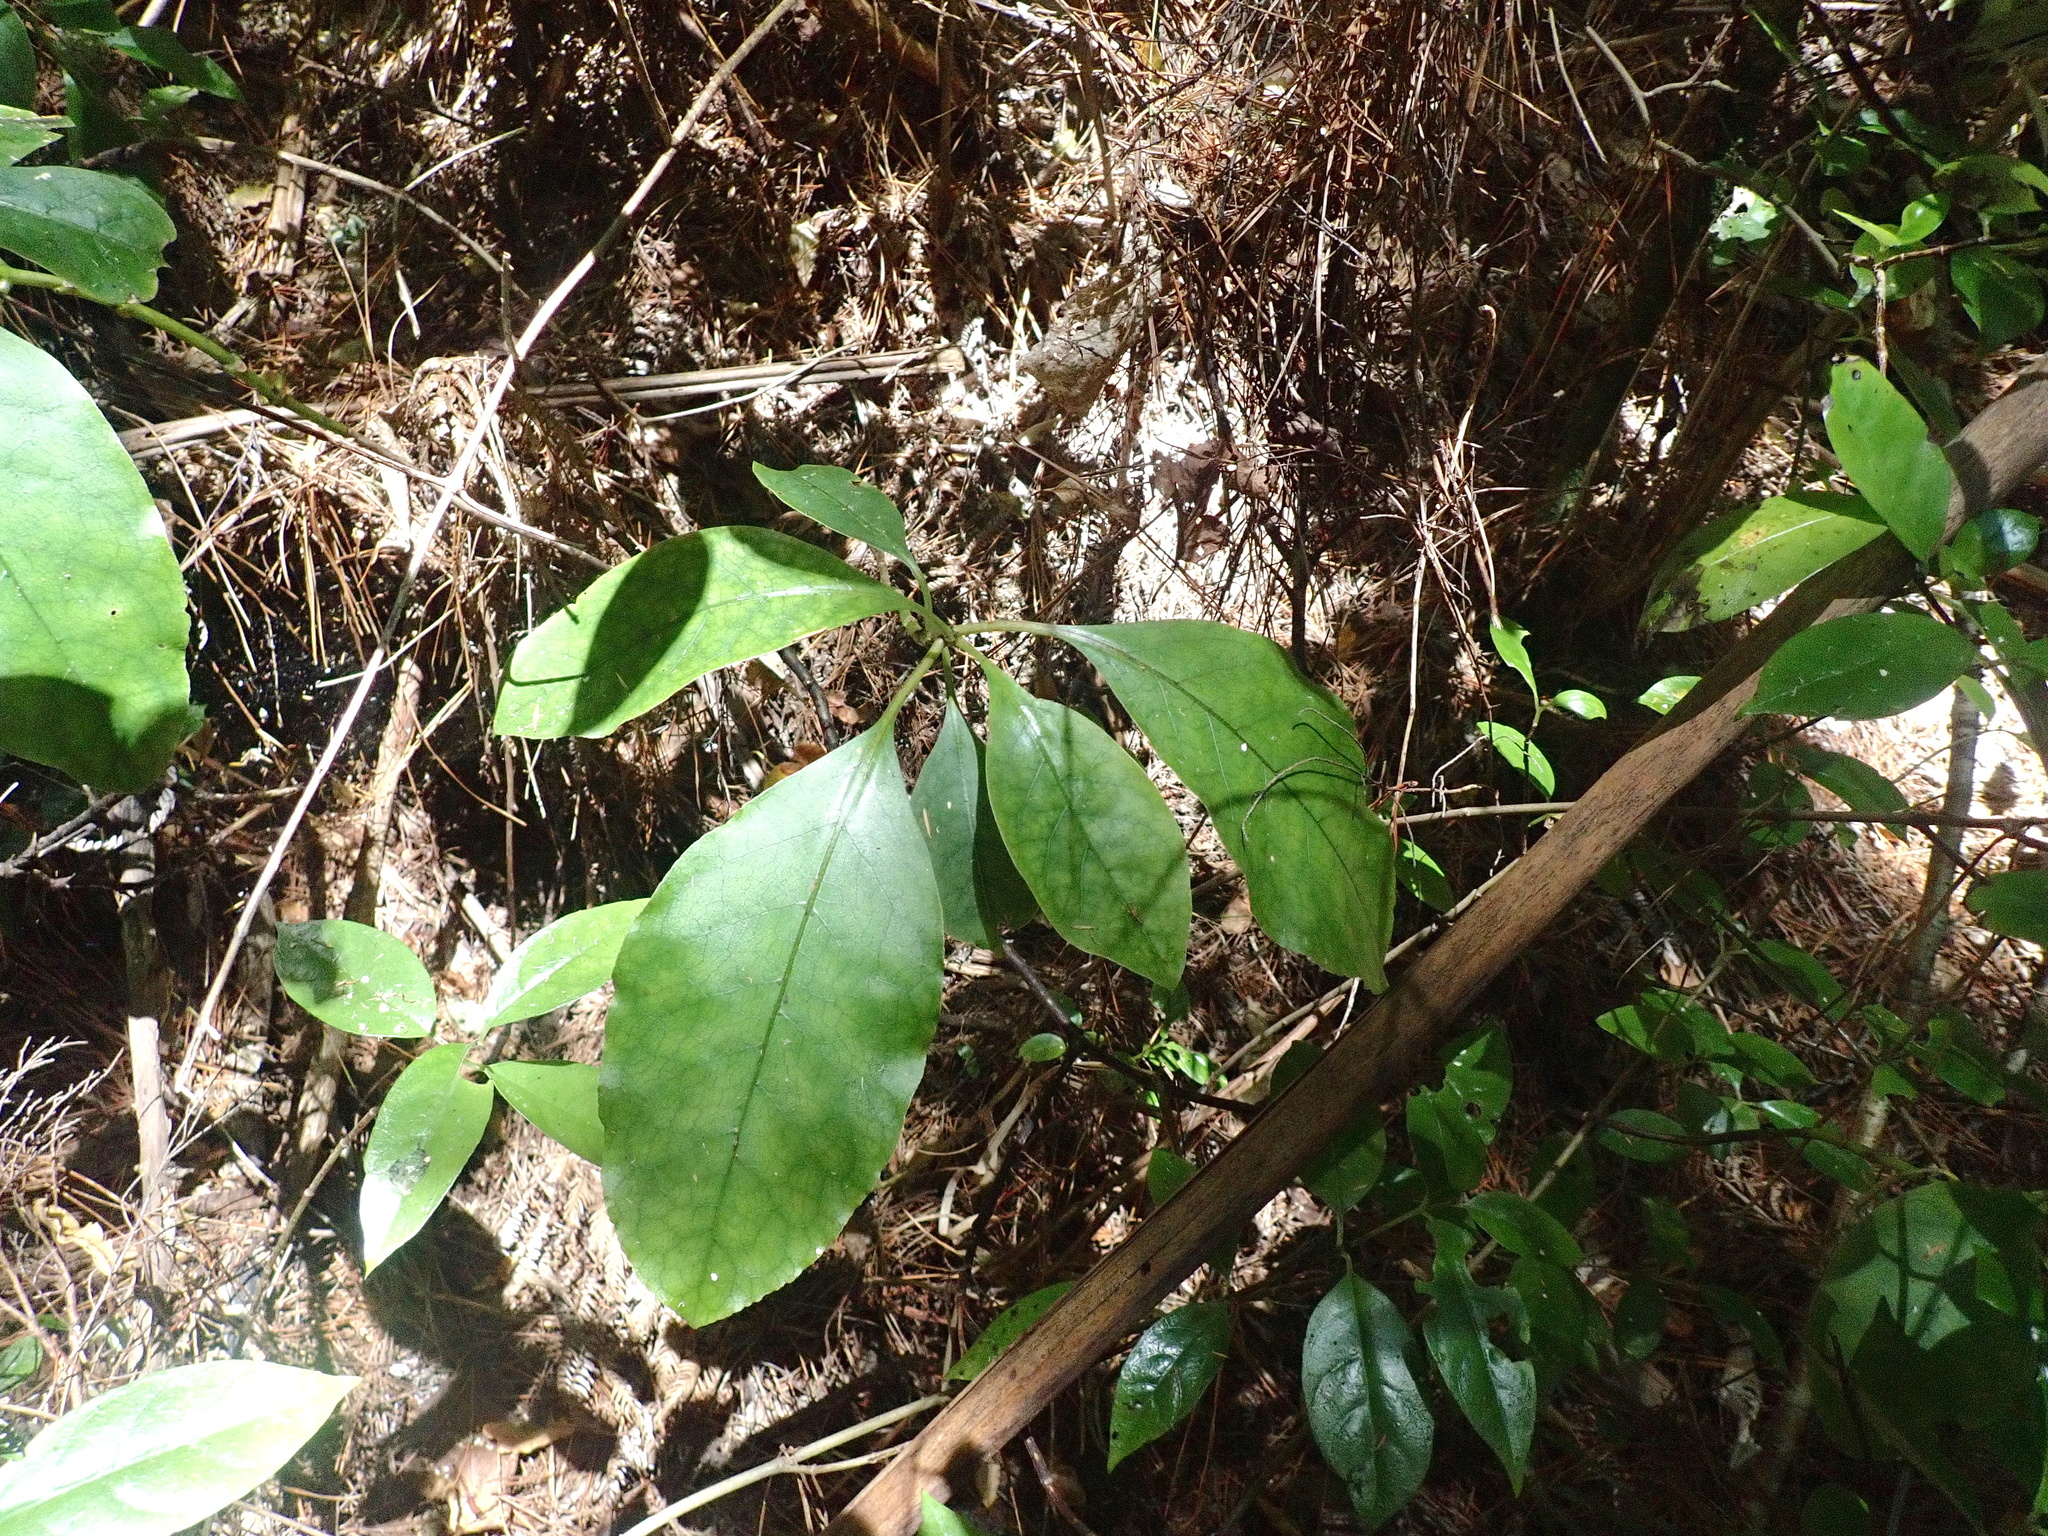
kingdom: Plantae
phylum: Tracheophyta
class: Magnoliopsida
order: Gentianales
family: Rubiaceae
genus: Coprosma
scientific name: Coprosma autumnalis
